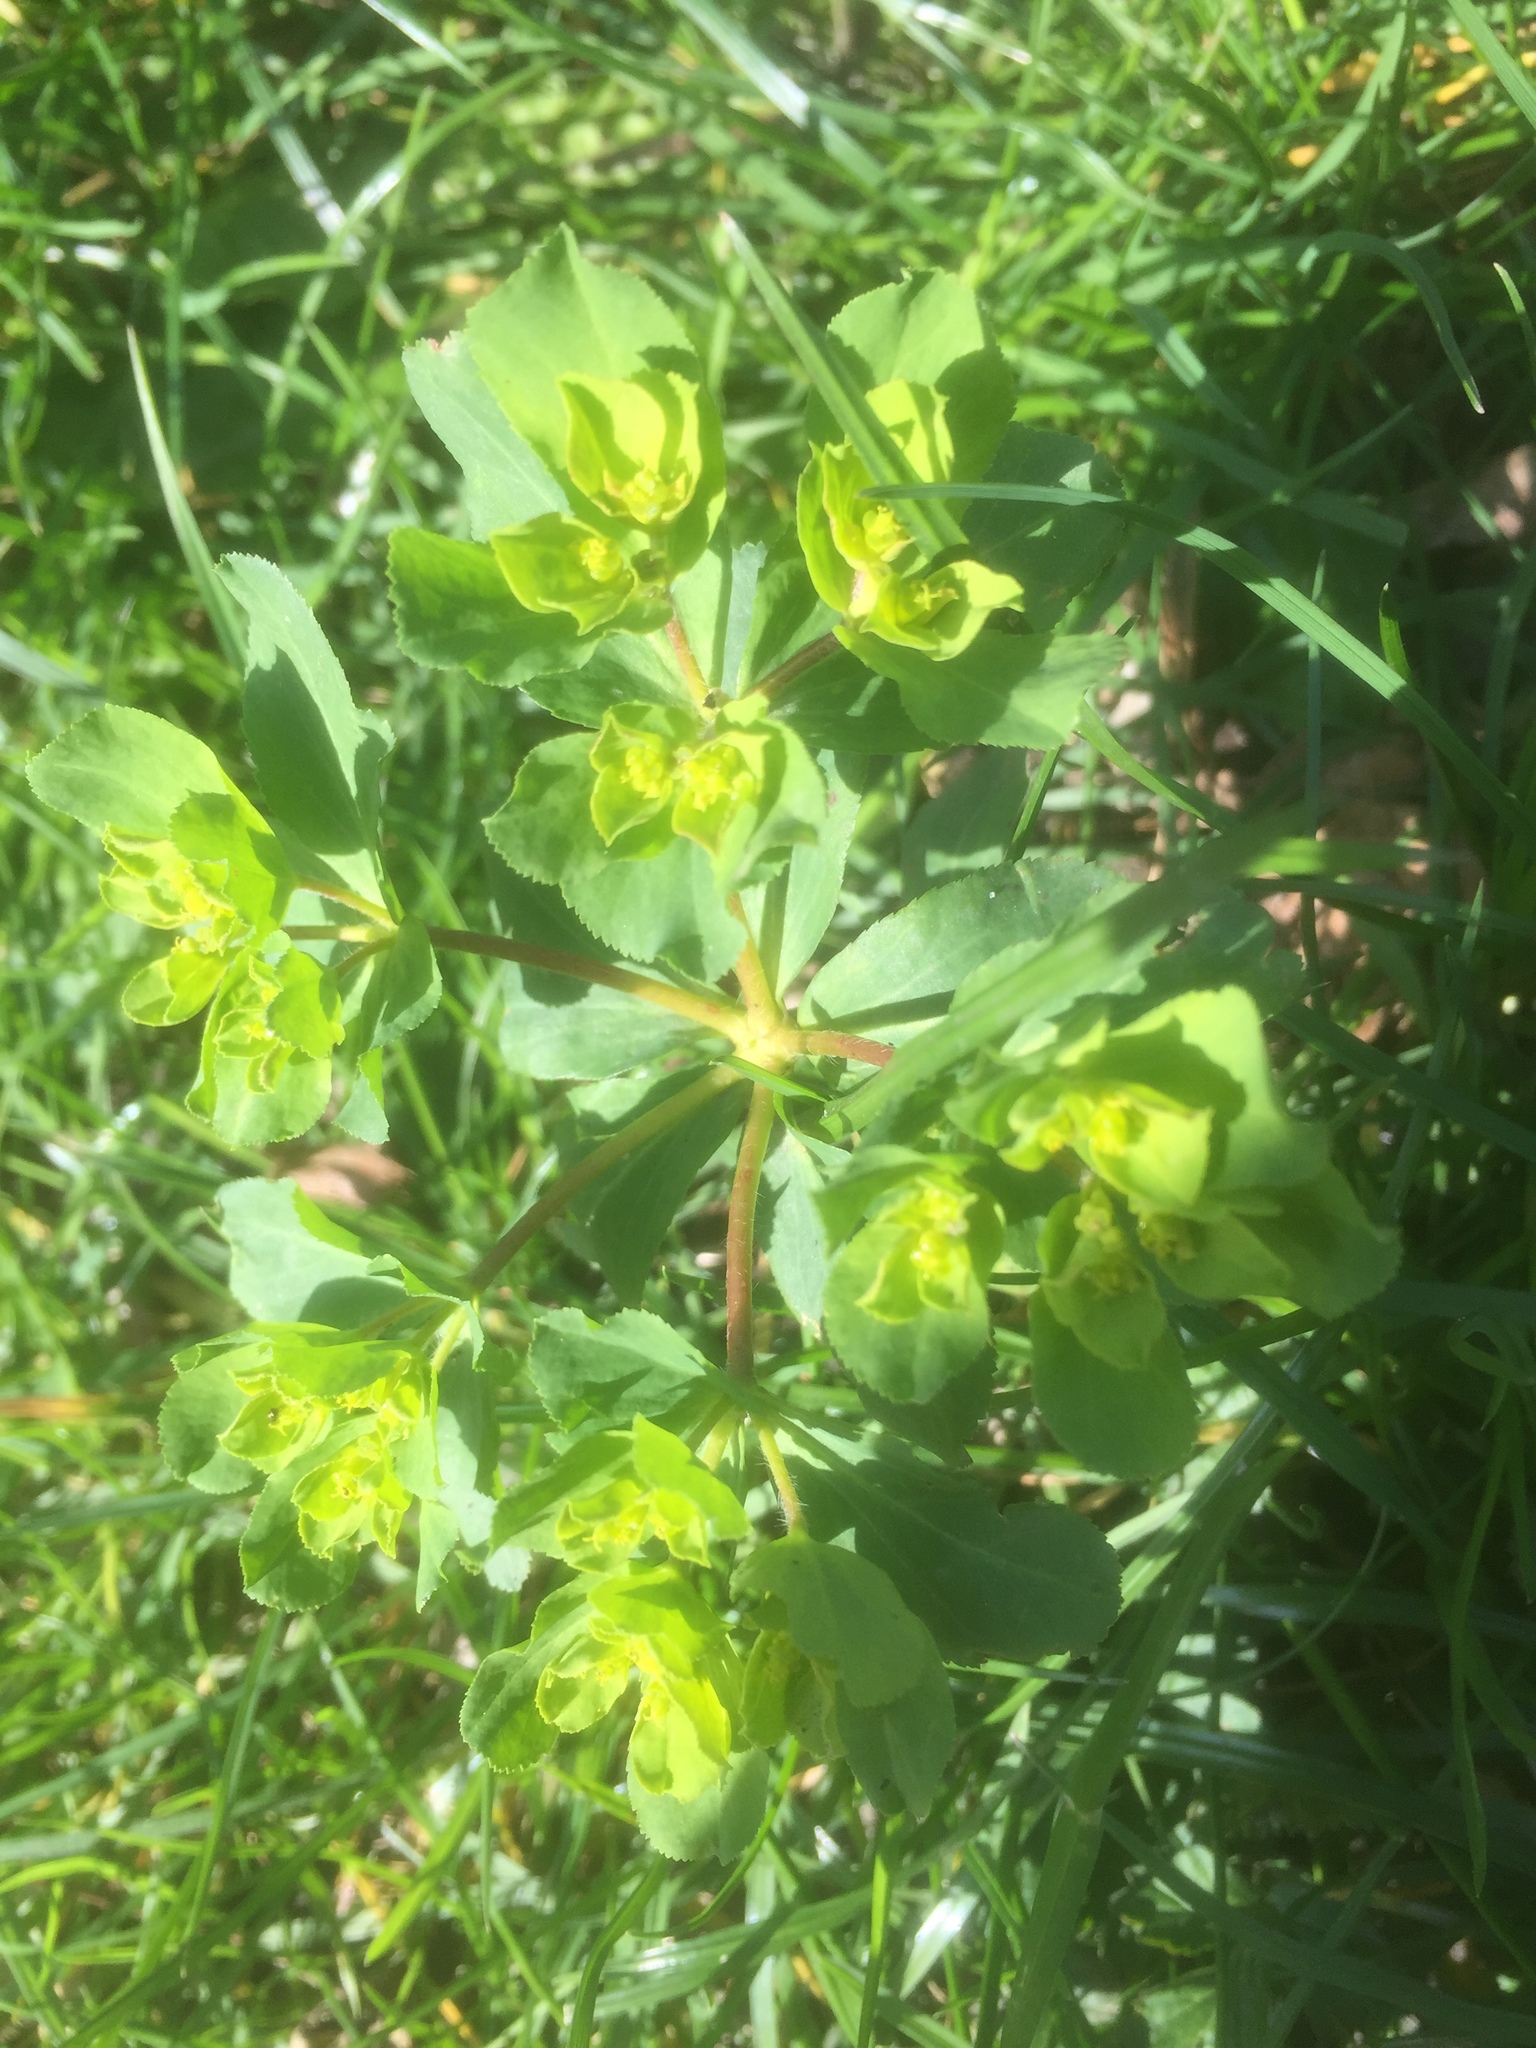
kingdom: Plantae
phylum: Tracheophyta
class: Magnoliopsida
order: Malpighiales
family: Euphorbiaceae
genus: Euphorbia
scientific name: Euphorbia helioscopia
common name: Sun spurge
